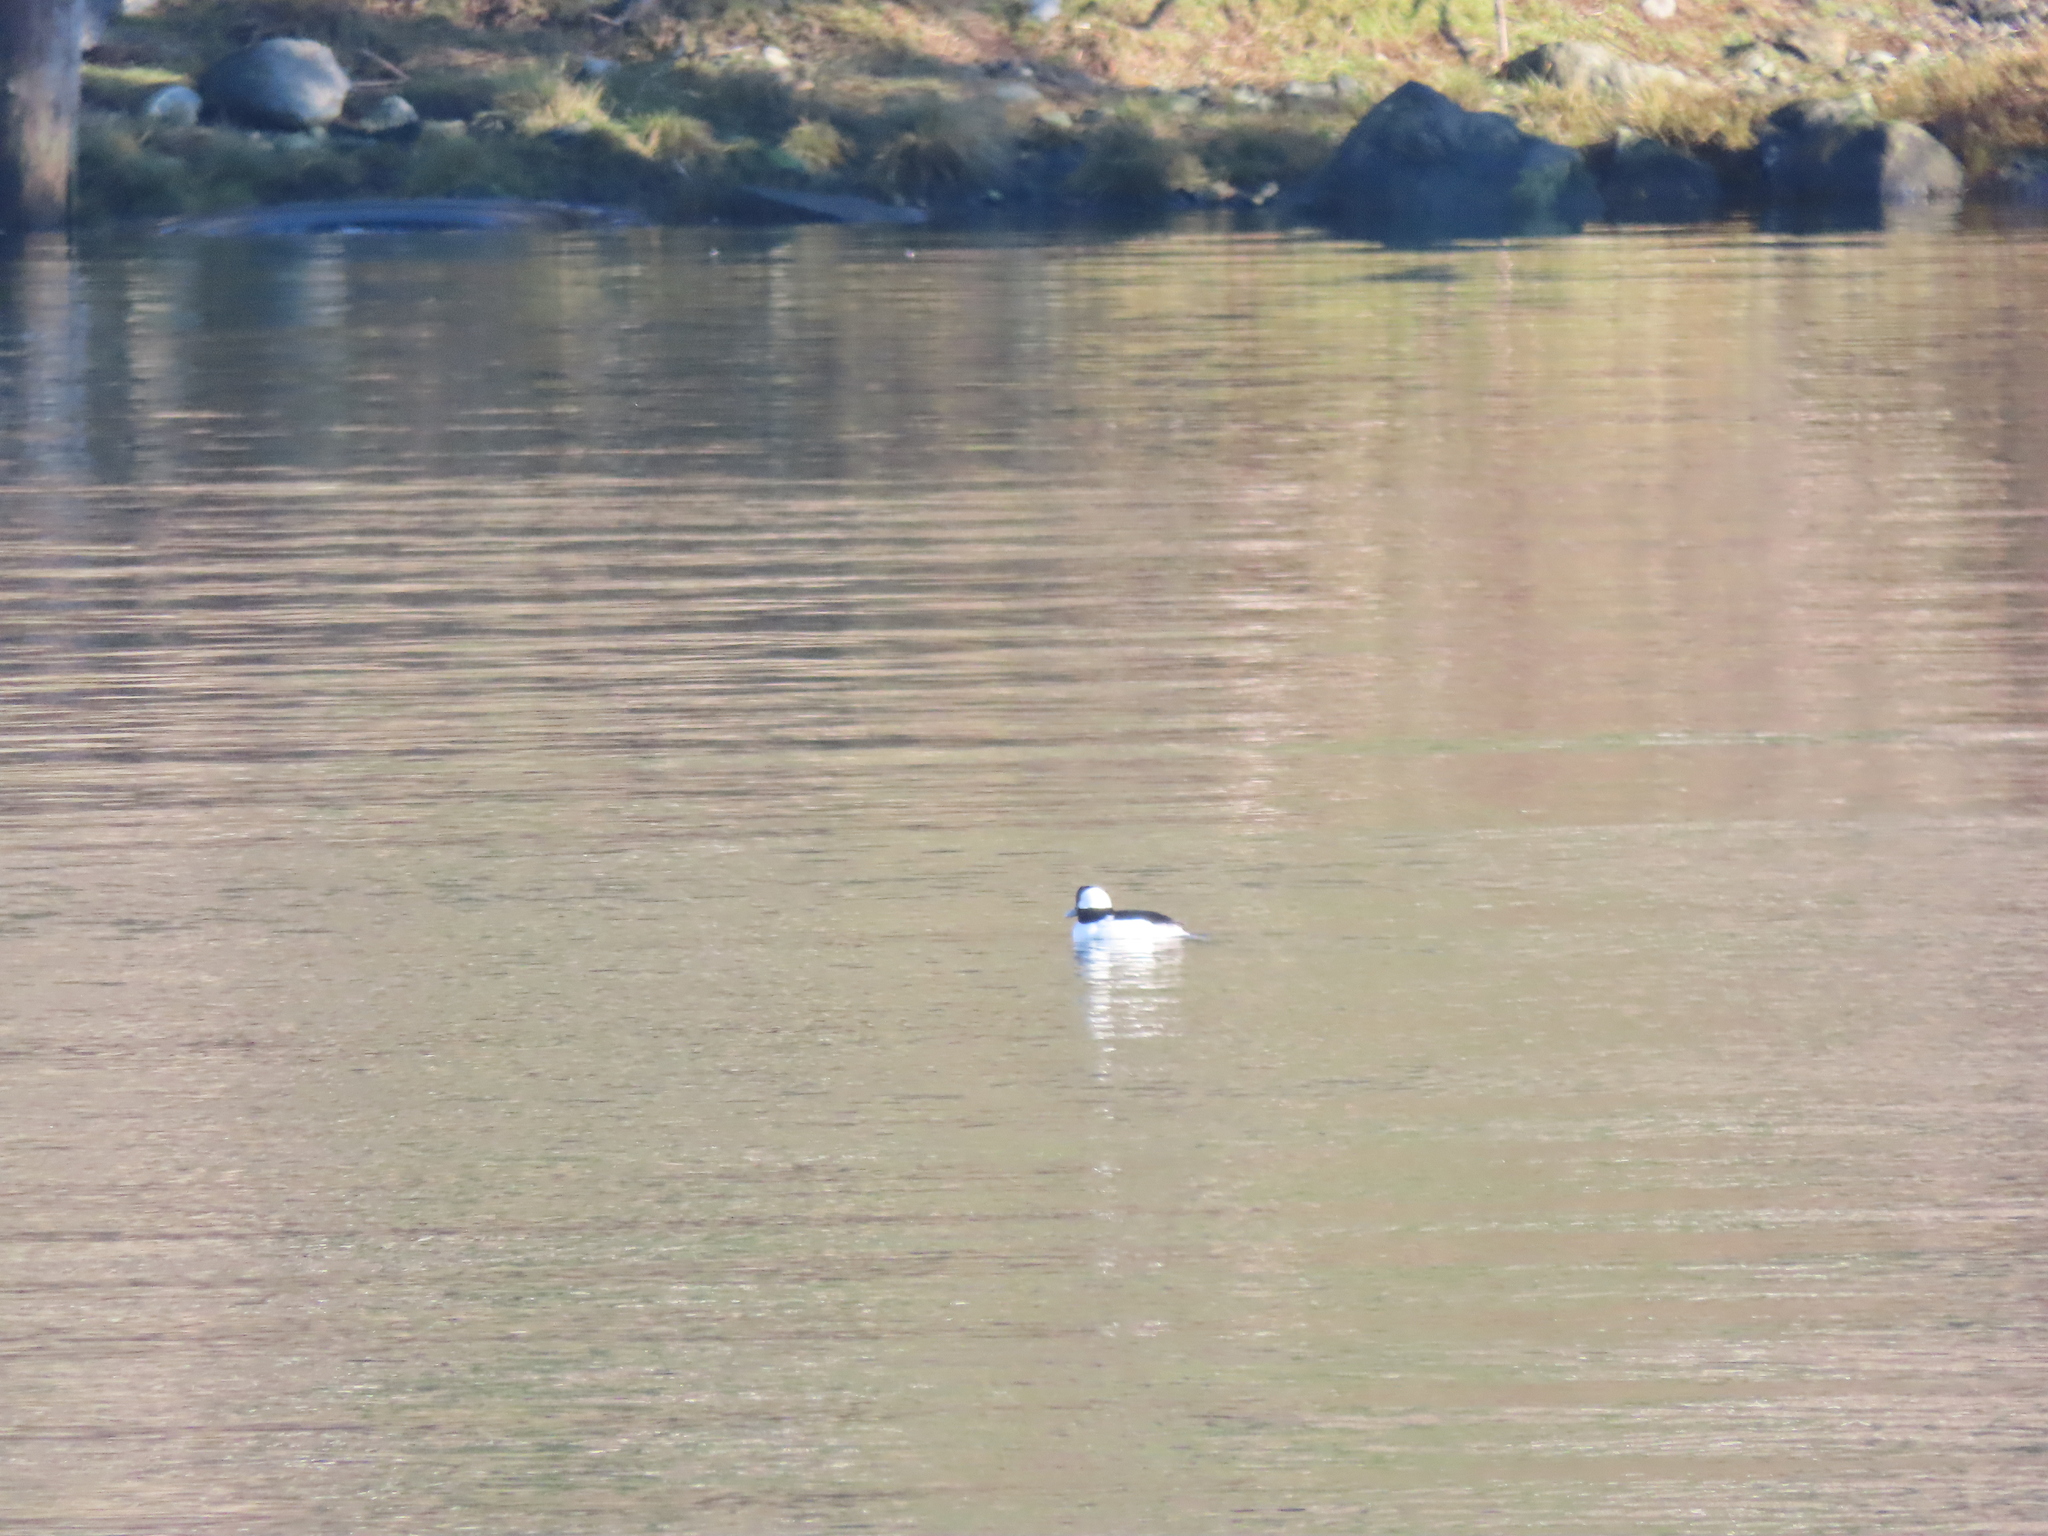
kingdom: Animalia
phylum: Chordata
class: Aves
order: Anseriformes
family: Anatidae
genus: Bucephala
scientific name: Bucephala albeola
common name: Bufflehead
